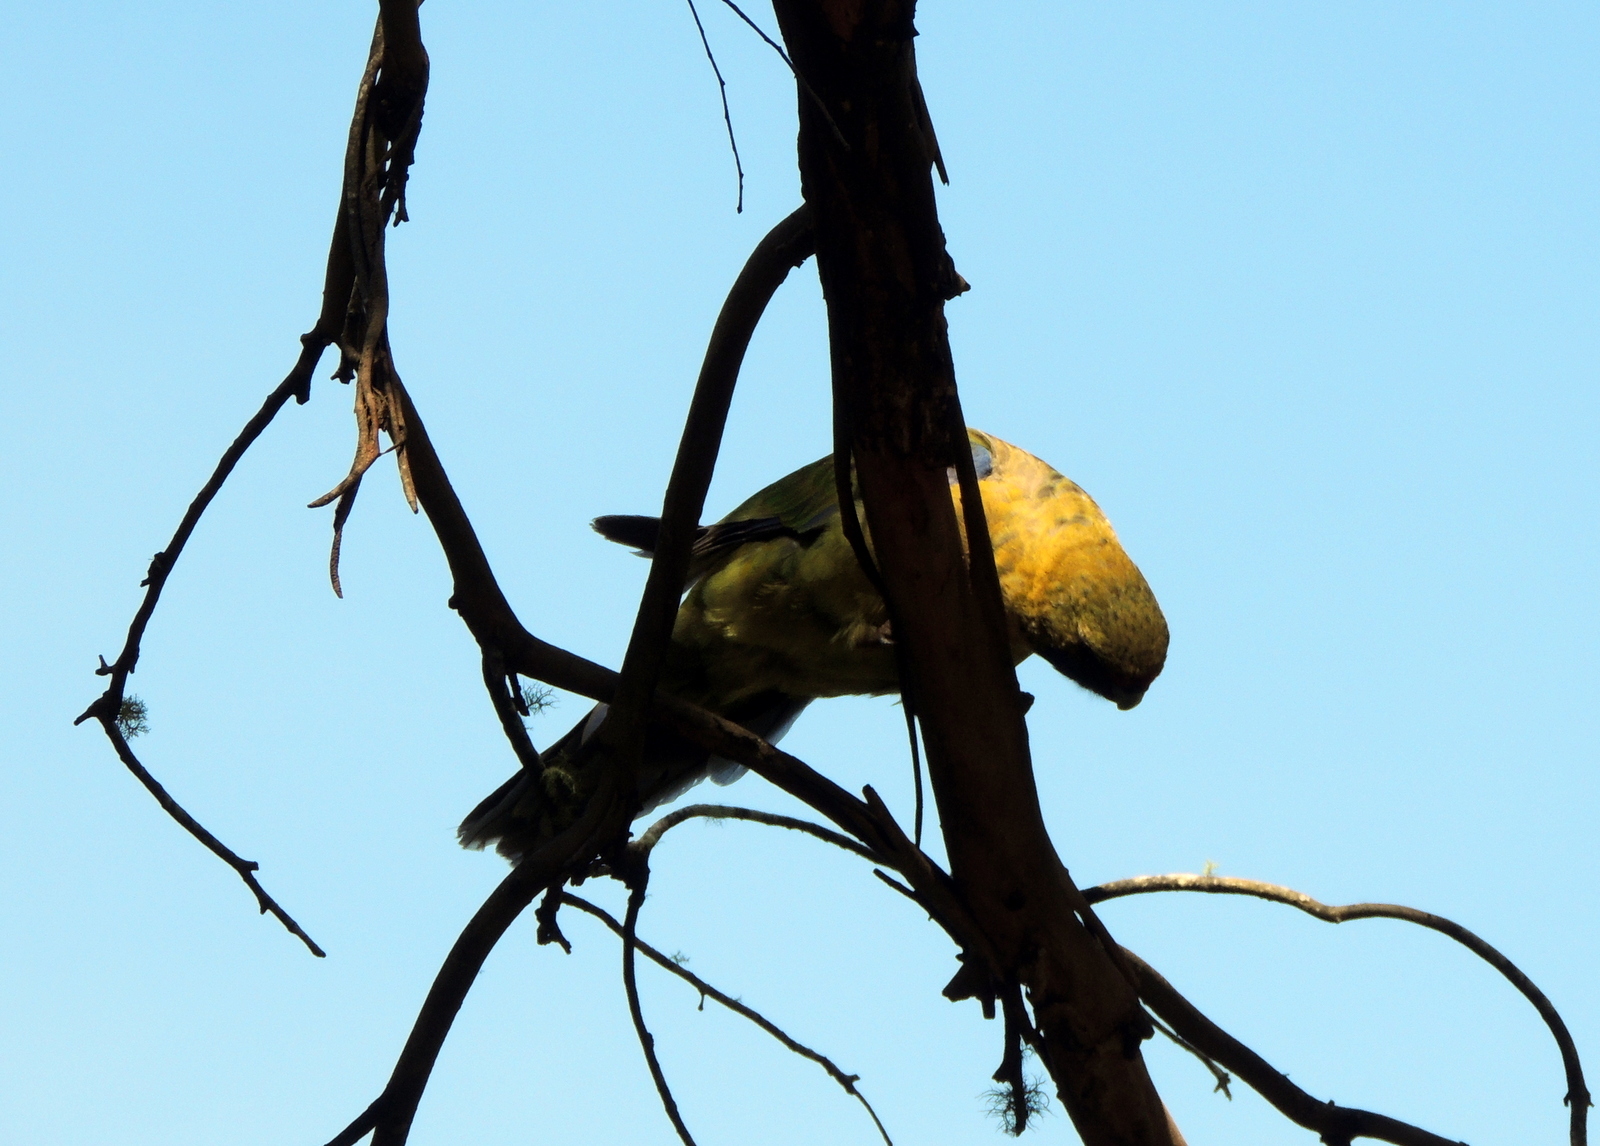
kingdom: Animalia
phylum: Chordata
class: Aves
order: Psittaciformes
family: Psittacidae
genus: Platycercus
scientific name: Platycercus caledonicus
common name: Green rosella
